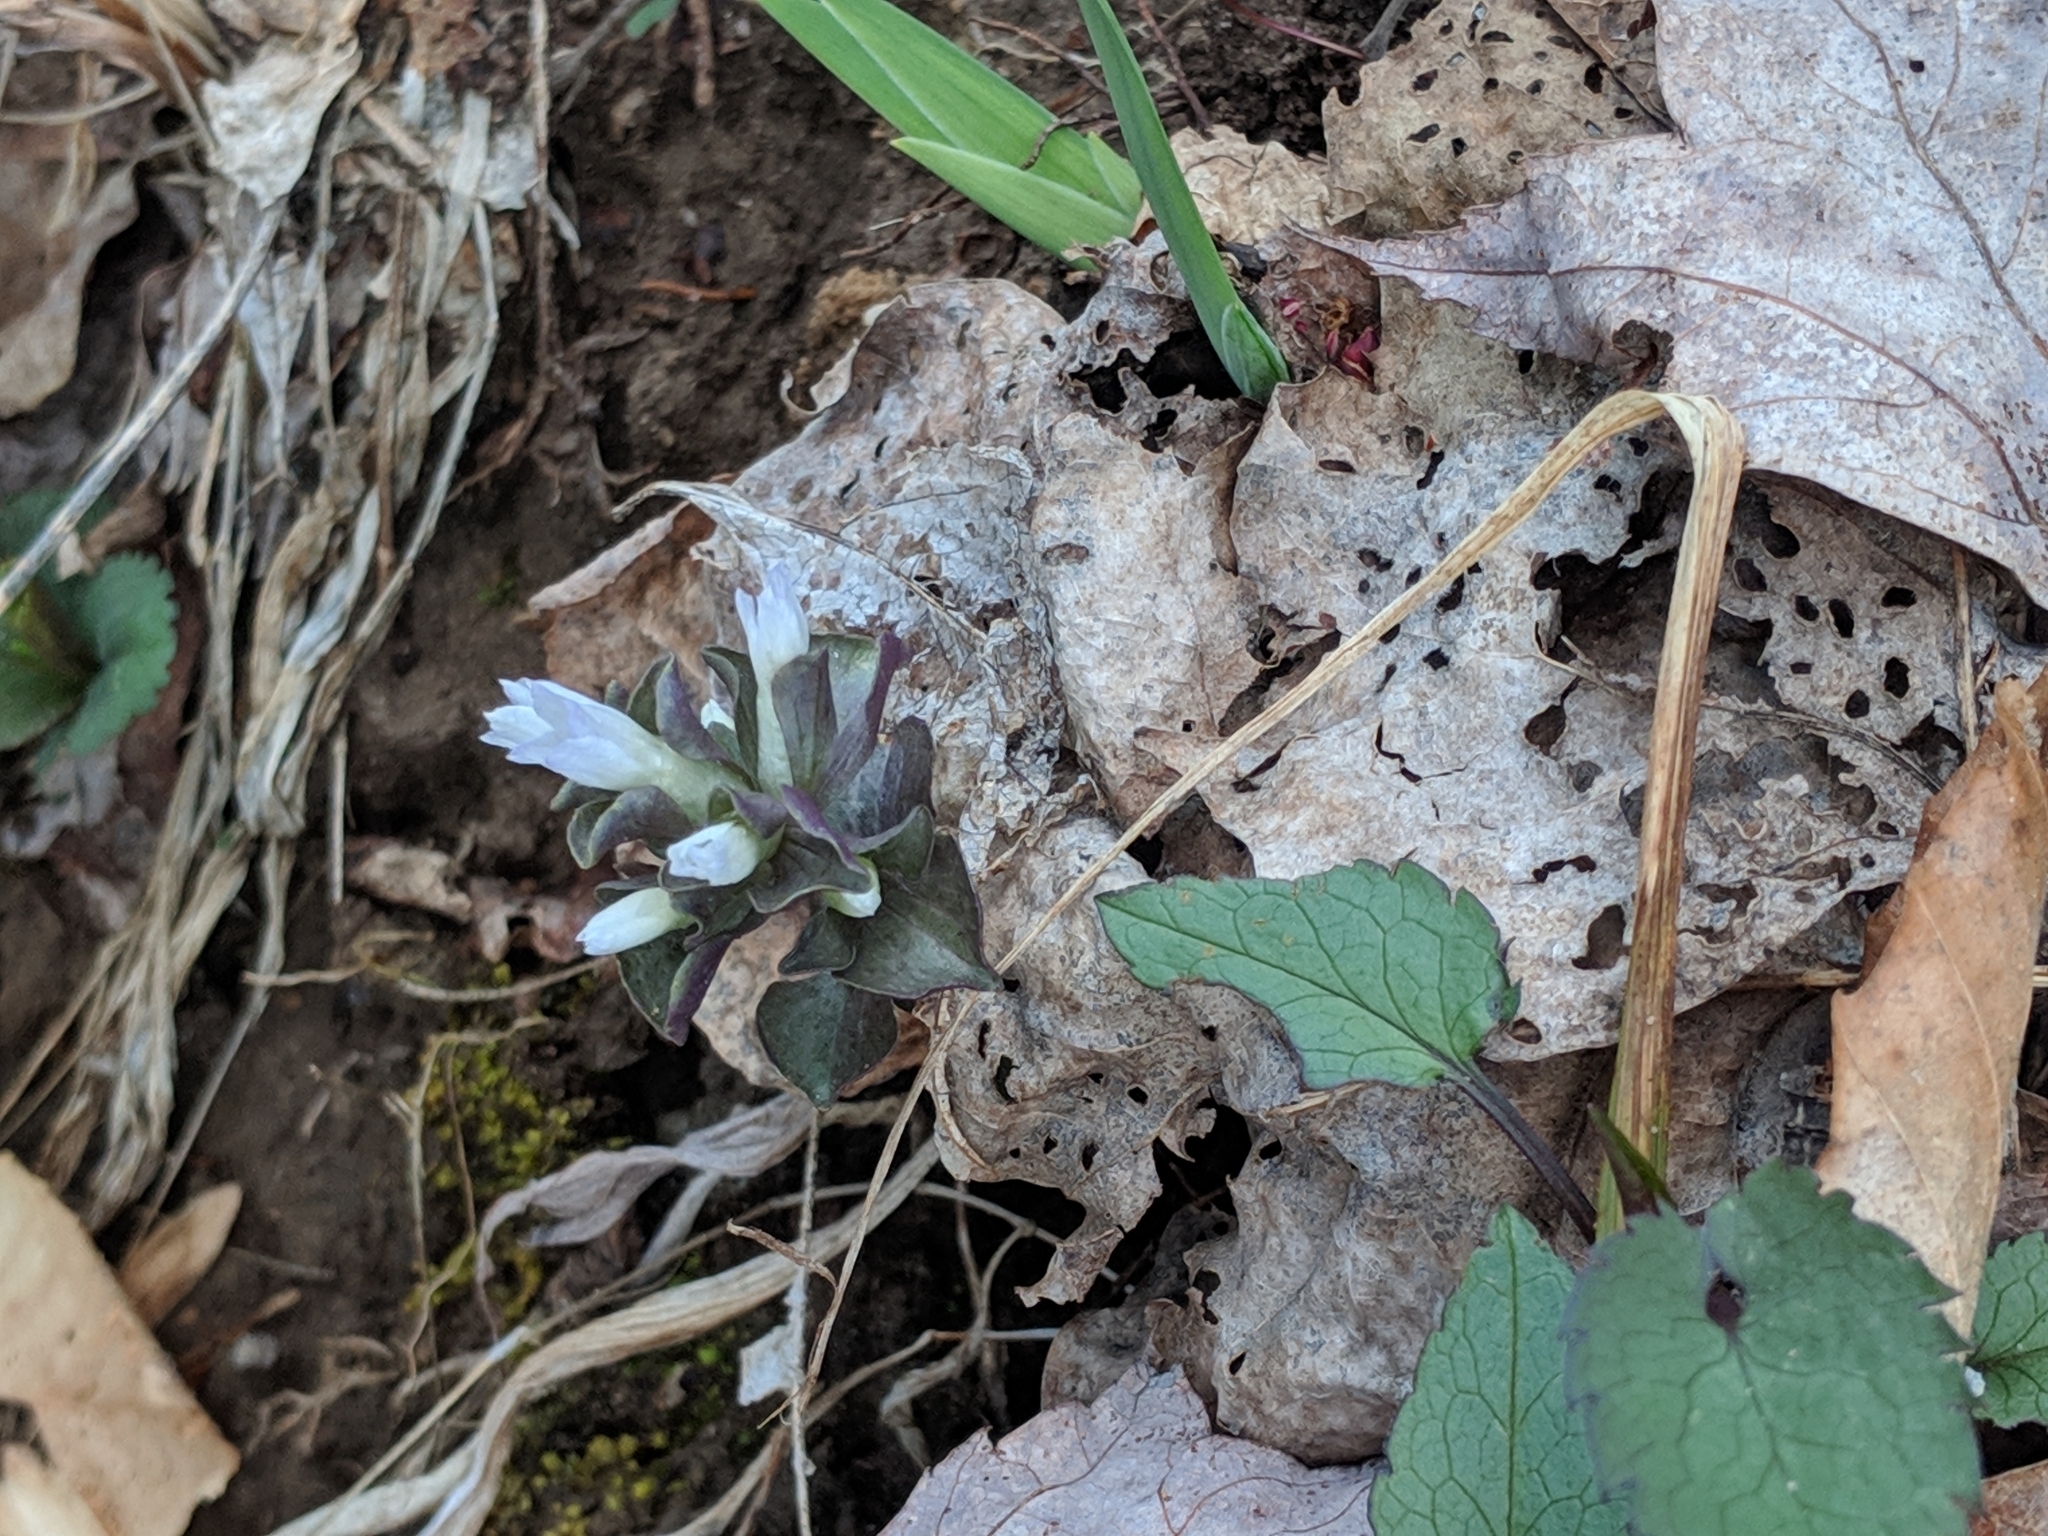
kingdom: Plantae
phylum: Tracheophyta
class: Magnoliopsida
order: Gentianales
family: Gentianaceae
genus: Obolaria
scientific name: Obolaria virginica
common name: Pennywort
